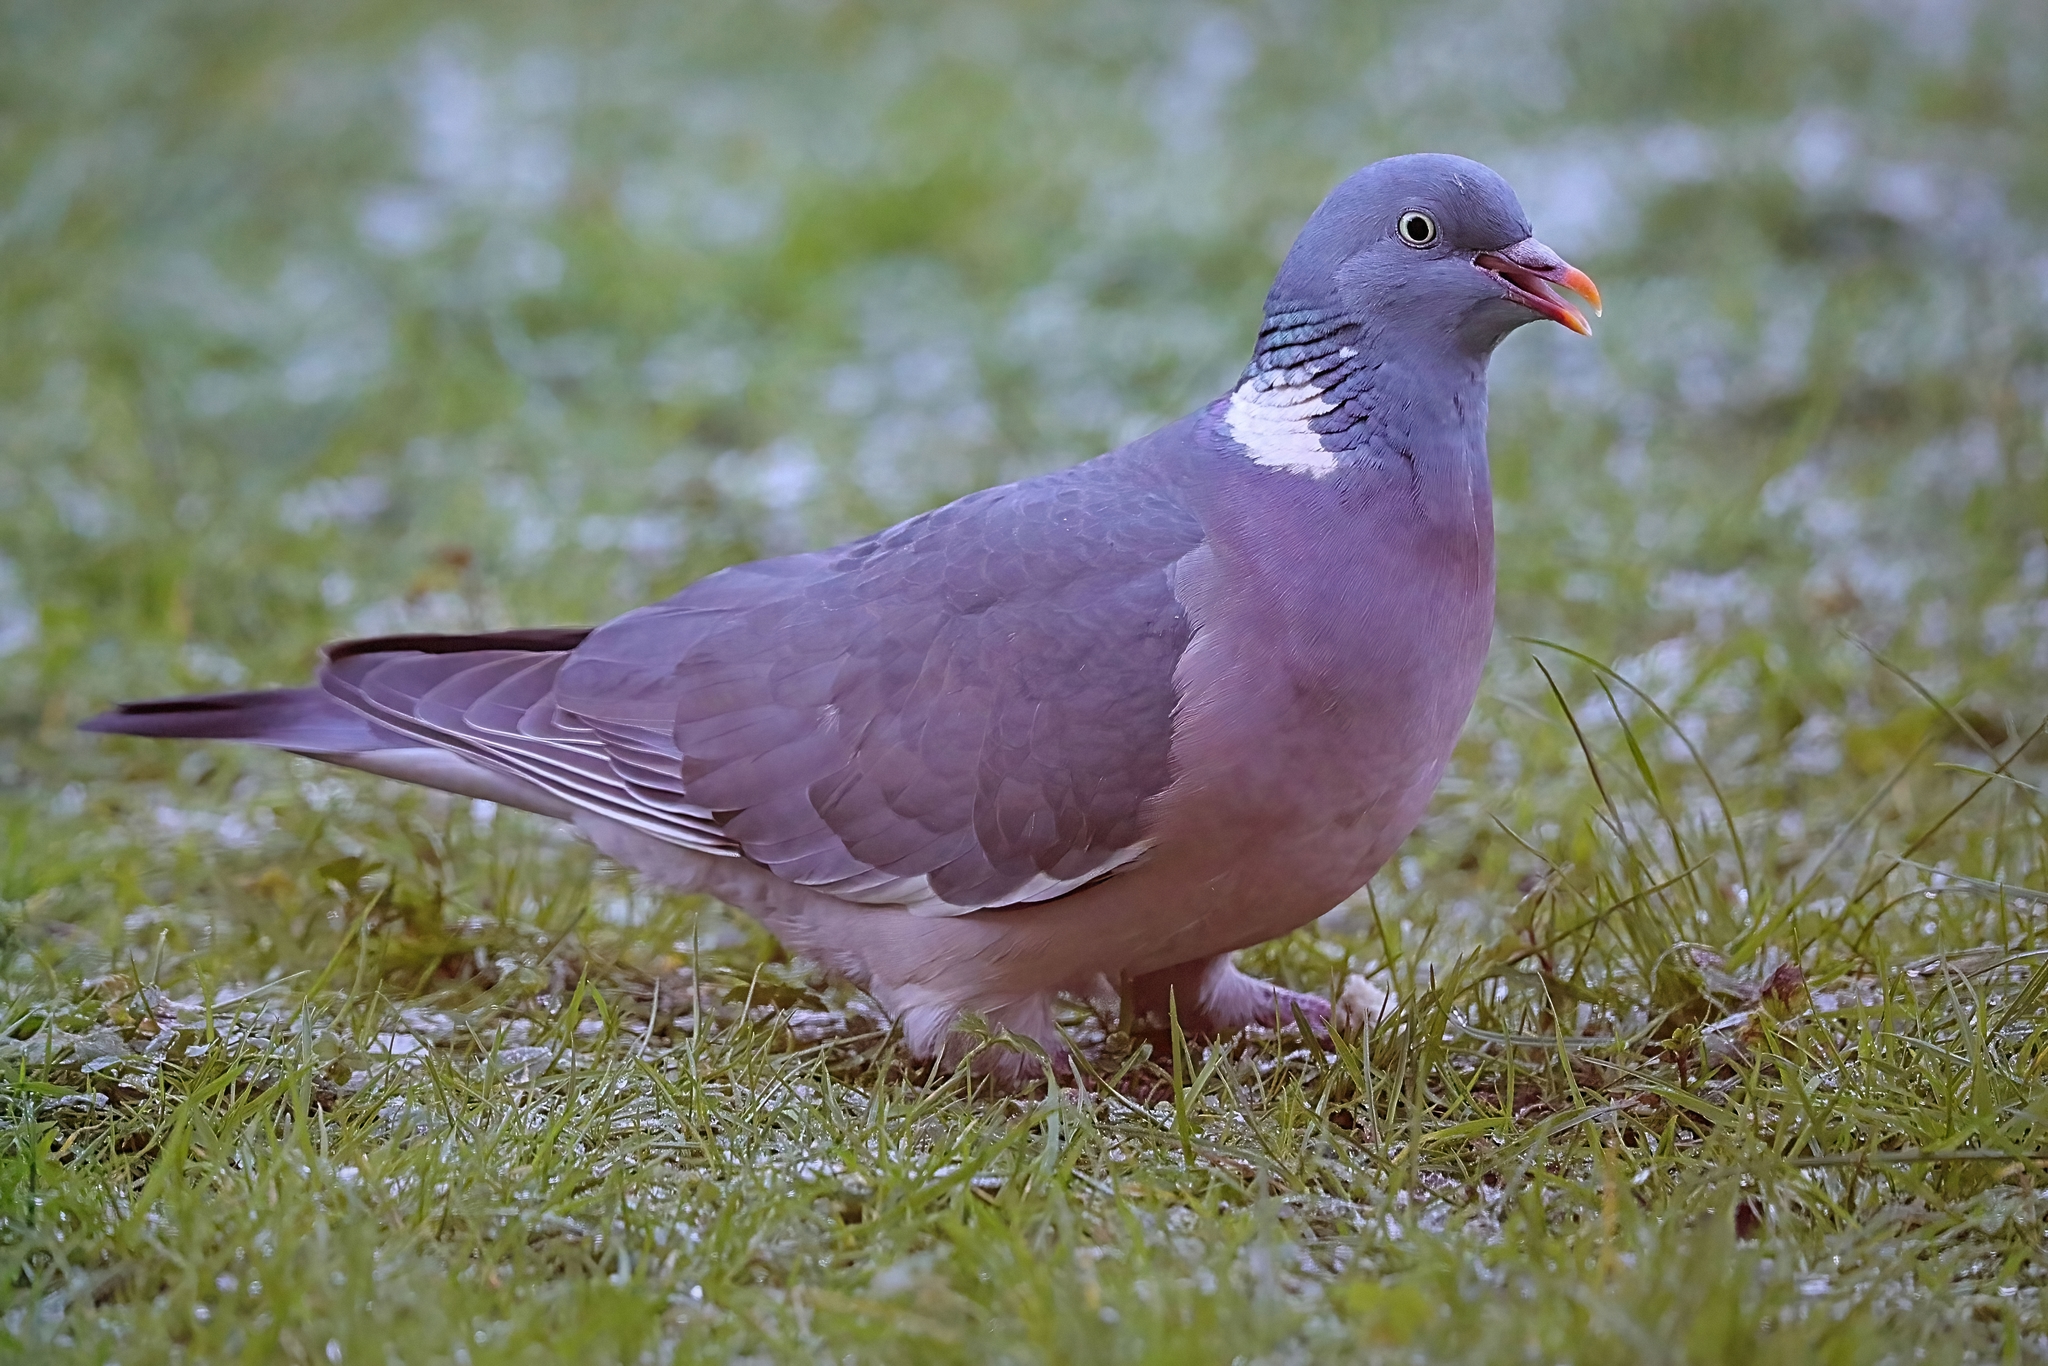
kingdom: Animalia
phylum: Chordata
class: Aves
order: Columbiformes
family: Columbidae
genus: Columba
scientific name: Columba palumbus
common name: Common wood pigeon
